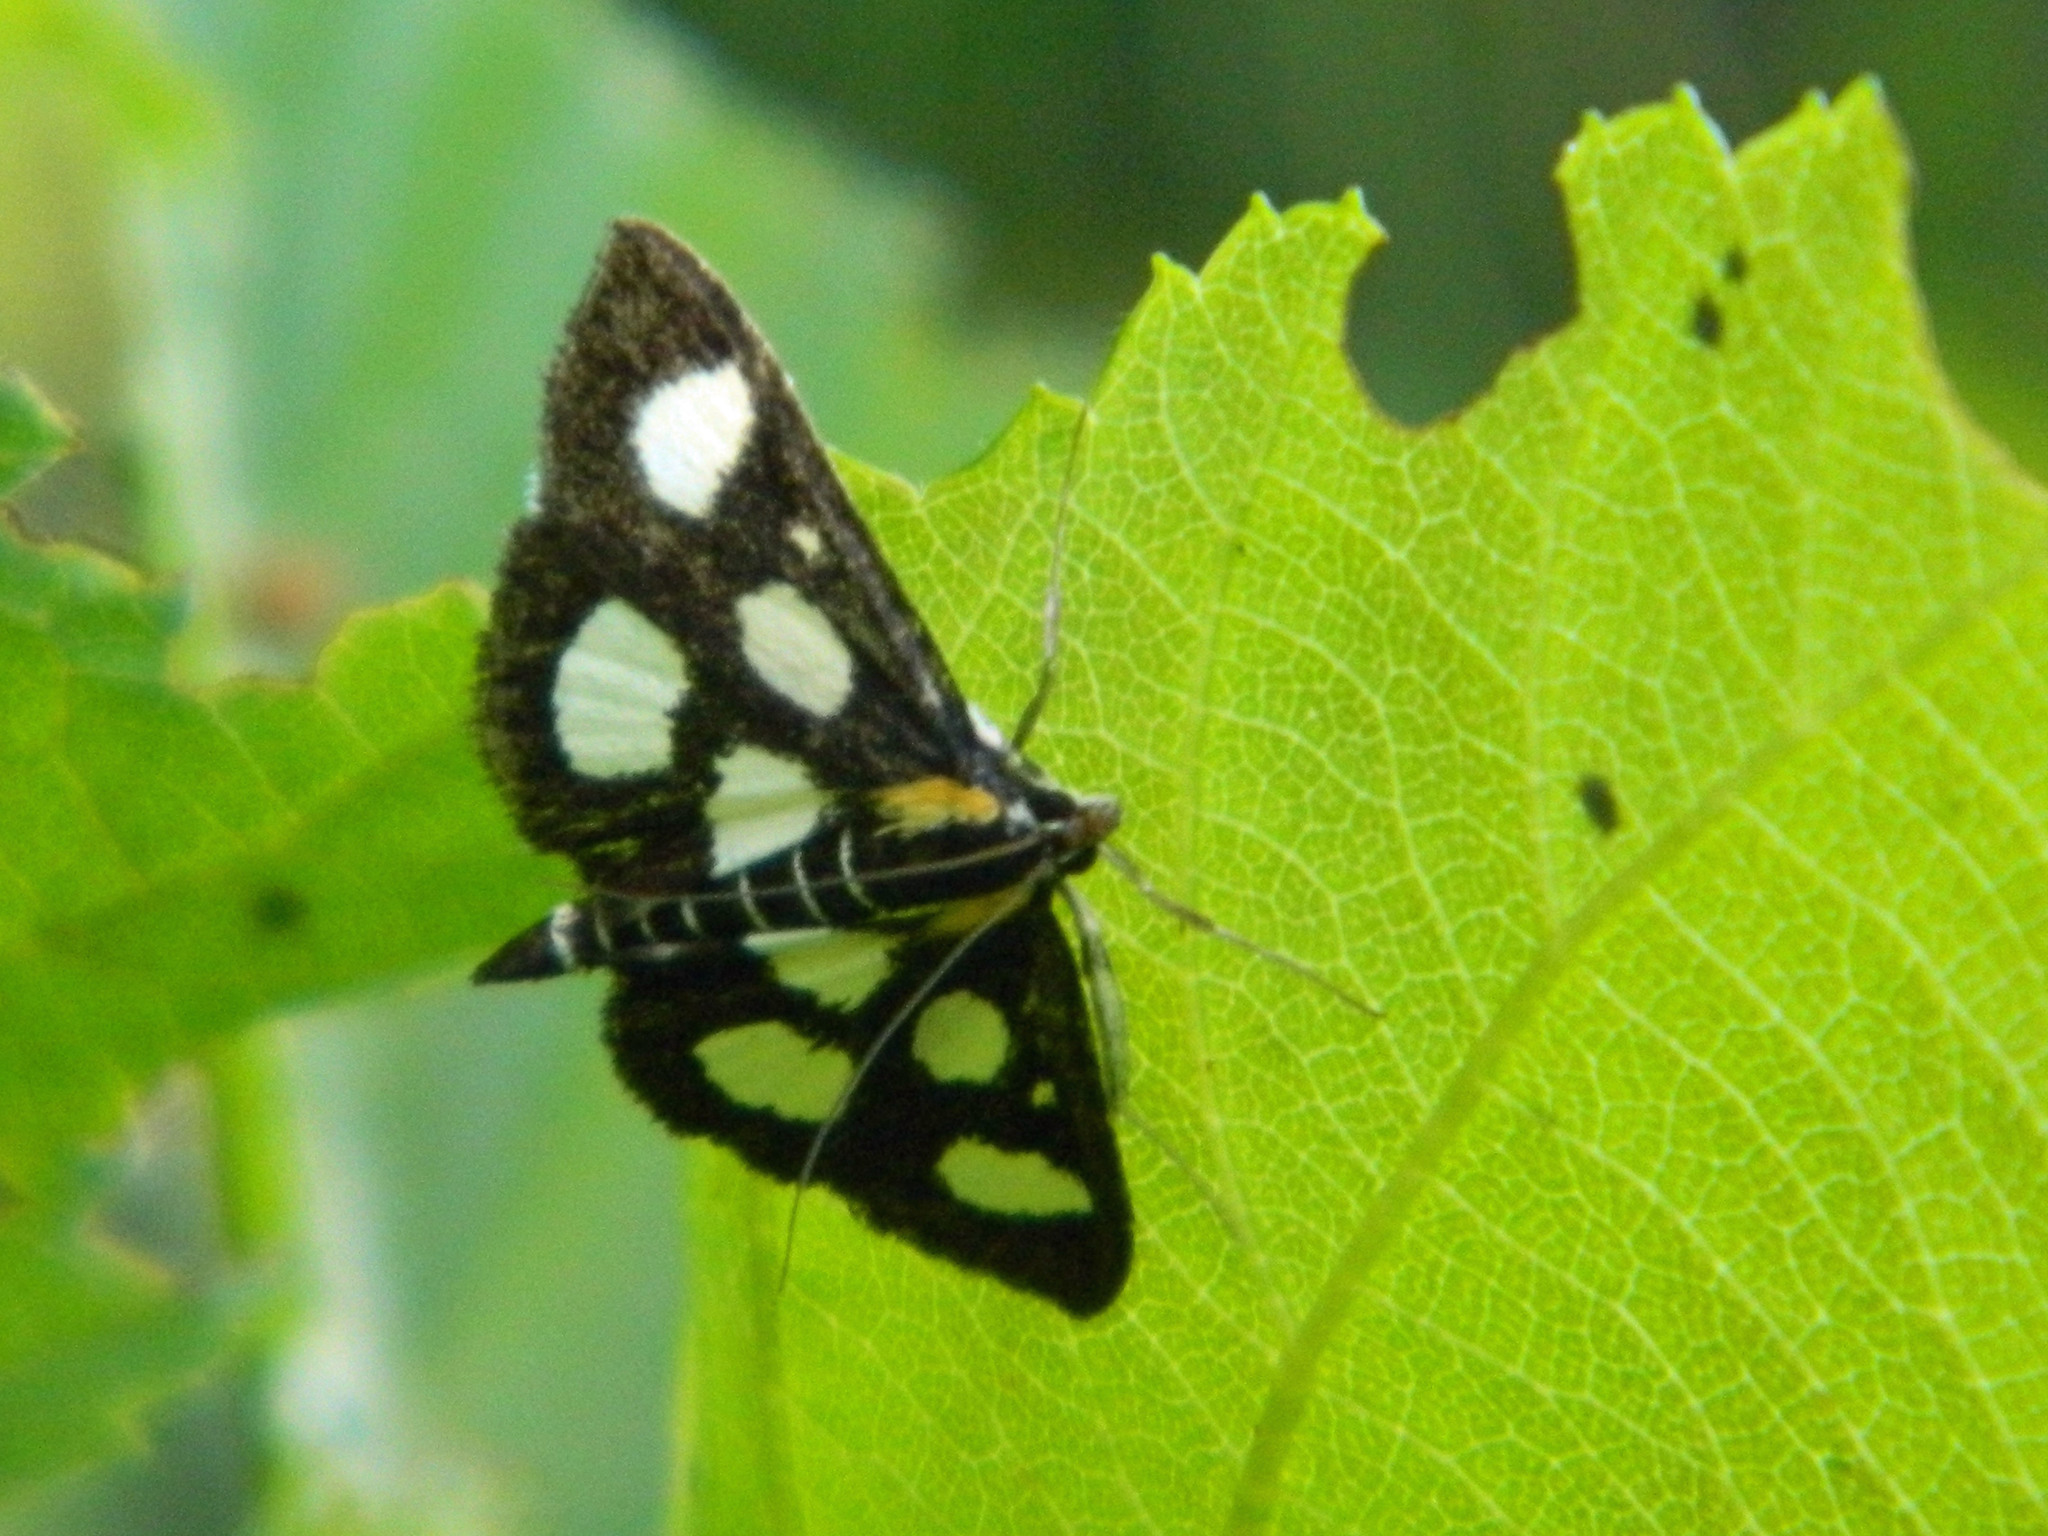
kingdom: Animalia
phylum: Arthropoda
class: Insecta
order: Lepidoptera
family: Crambidae
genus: Anania
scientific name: Anania funebris
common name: White-spotted sable moth
